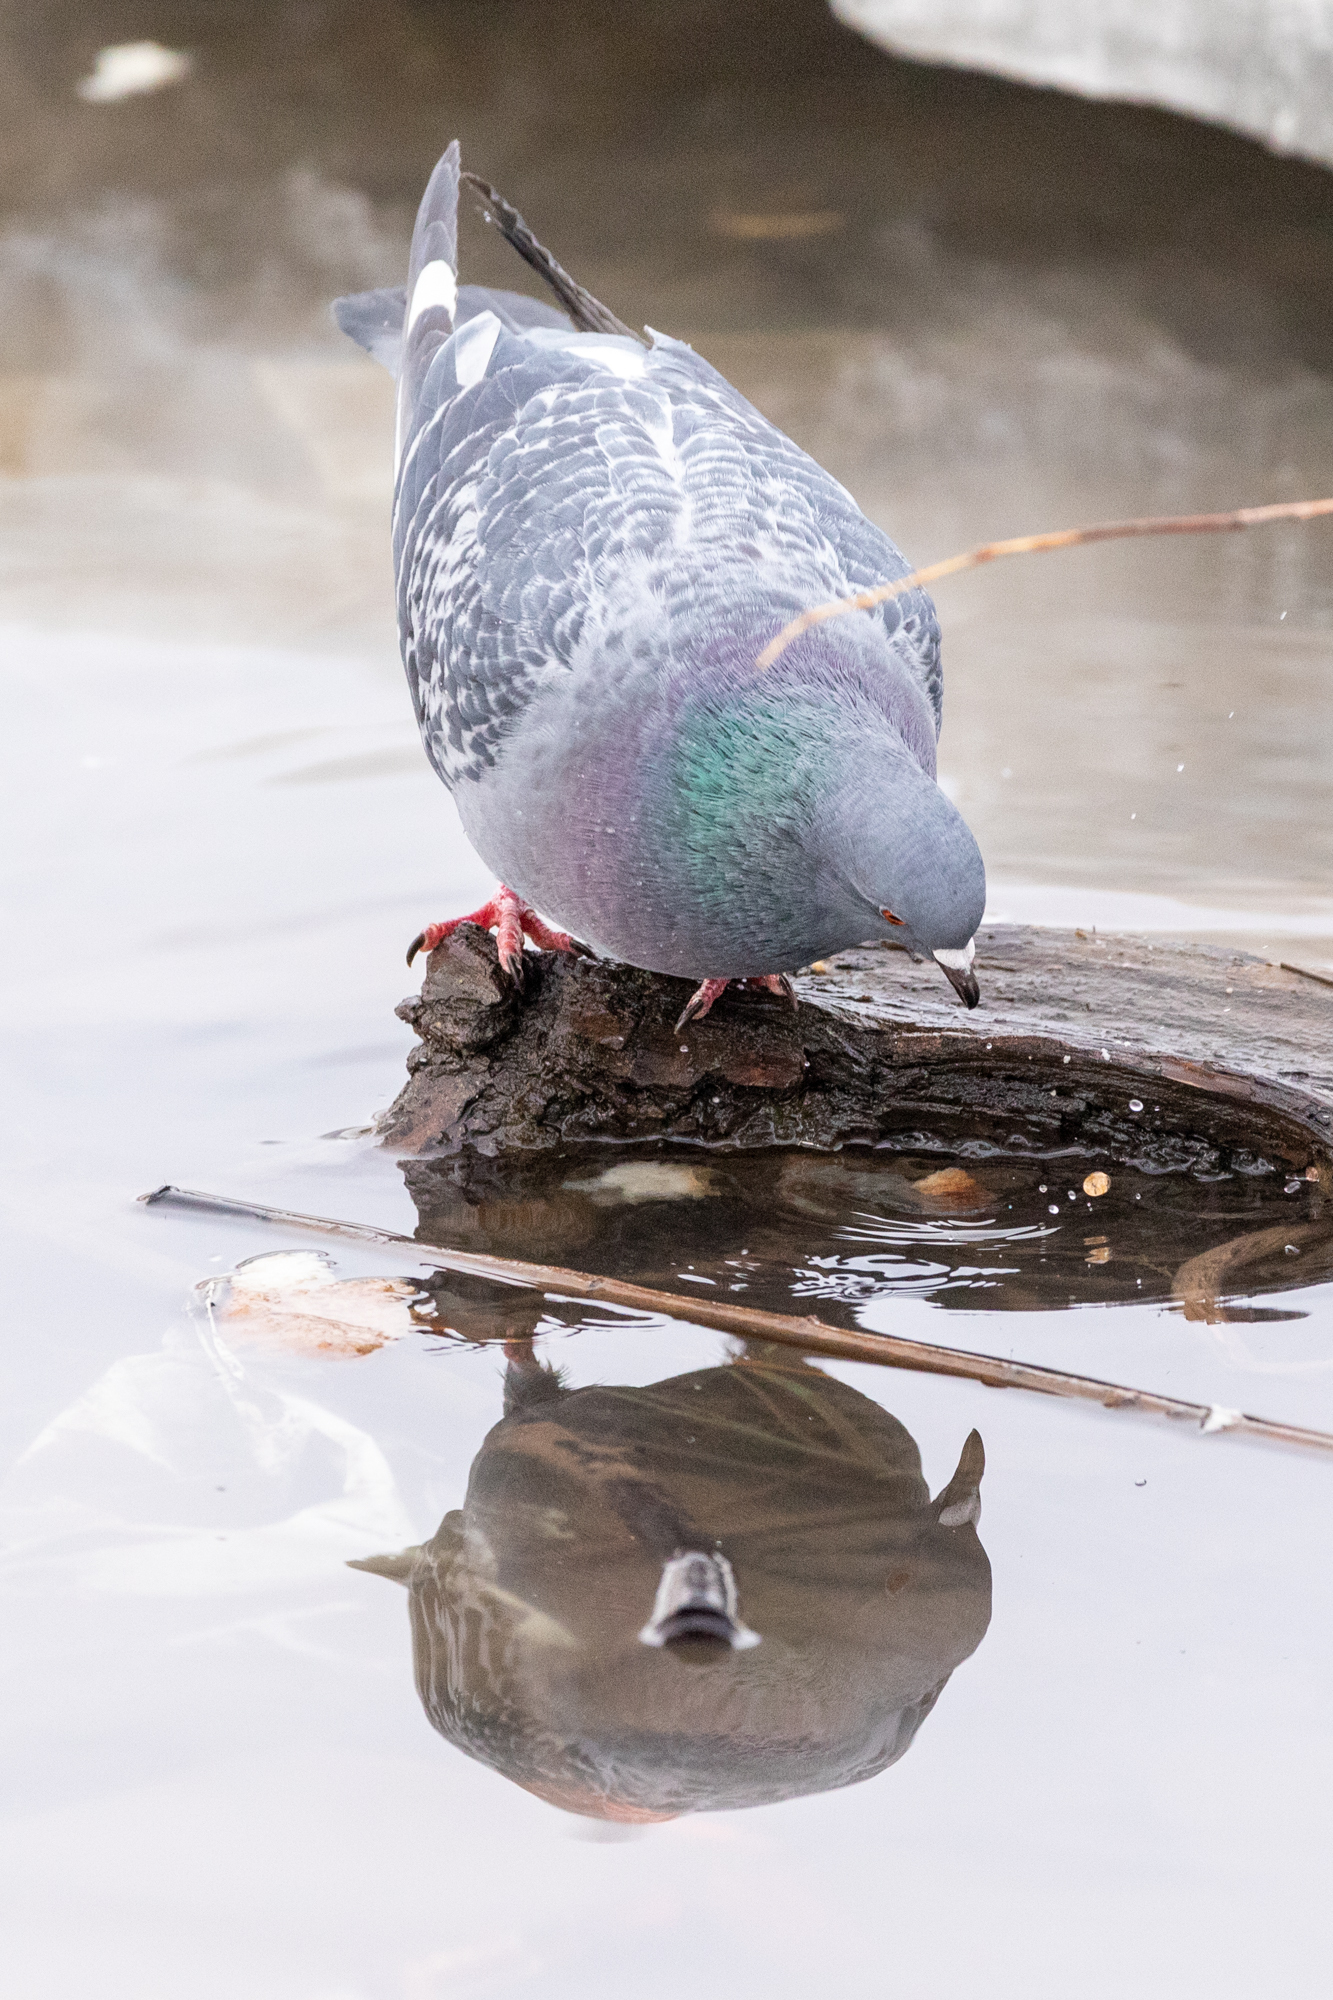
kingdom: Animalia
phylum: Chordata
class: Aves
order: Columbiformes
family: Columbidae
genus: Columba
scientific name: Columba livia
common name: Rock pigeon
